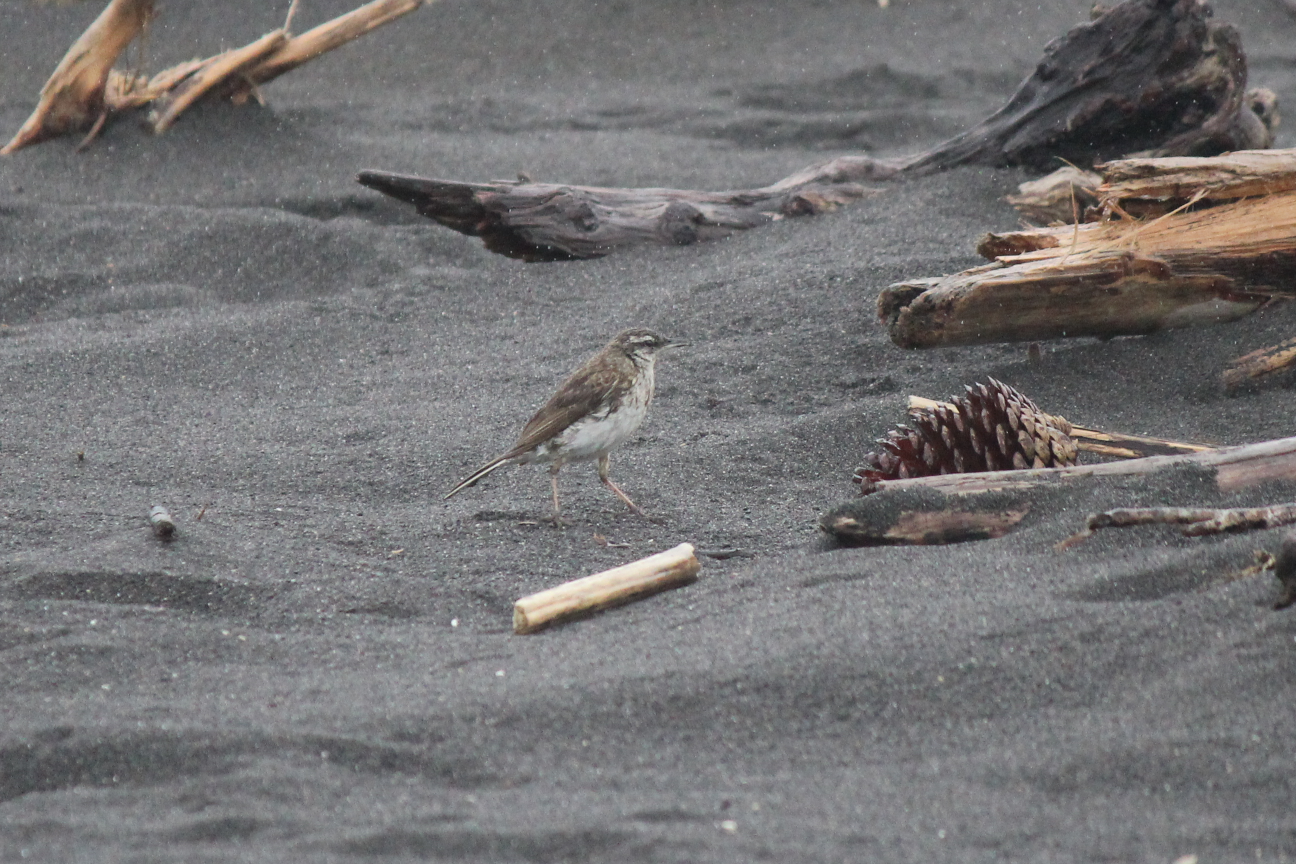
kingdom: Animalia
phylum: Chordata
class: Aves
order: Passeriformes
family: Motacillidae
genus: Anthus
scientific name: Anthus novaeseelandiae
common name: New zealand pipit
